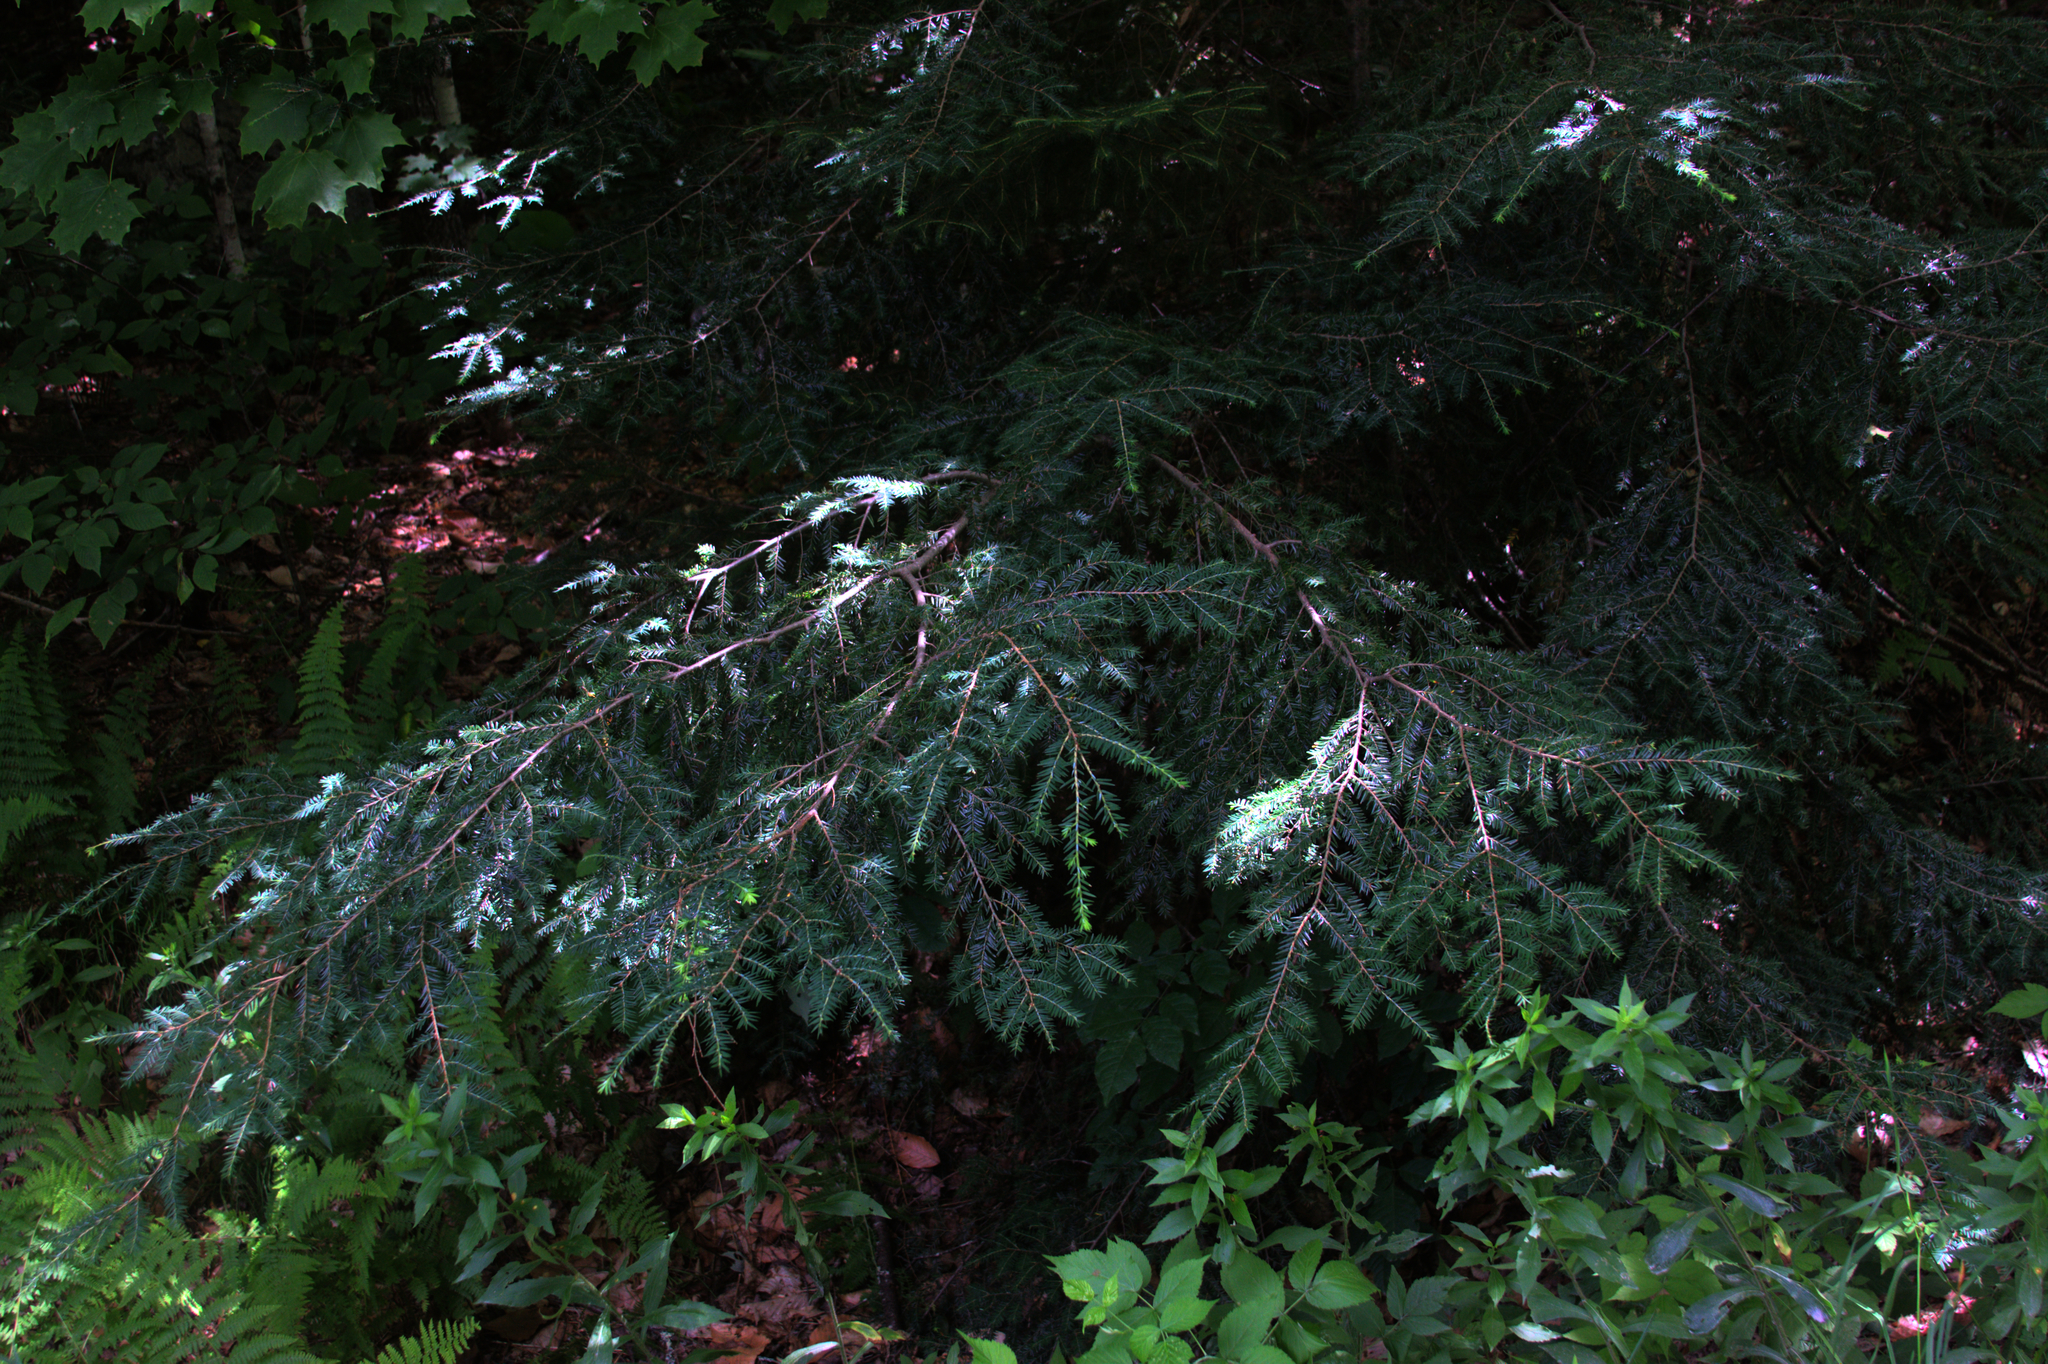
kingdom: Plantae
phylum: Tracheophyta
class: Pinopsida
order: Pinales
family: Pinaceae
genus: Tsuga
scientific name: Tsuga canadensis
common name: Eastern hemlock
